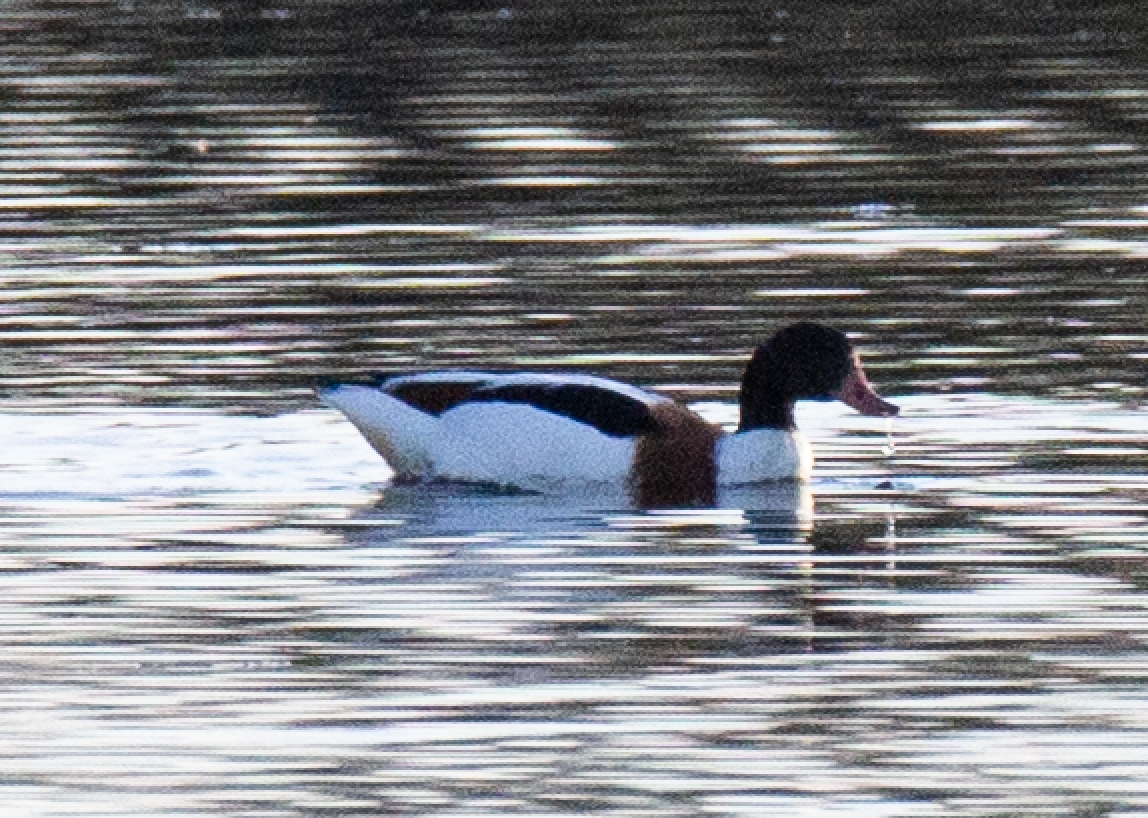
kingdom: Animalia
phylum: Chordata
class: Aves
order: Anseriformes
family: Anatidae
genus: Tadorna
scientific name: Tadorna tadorna
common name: Common shelduck
